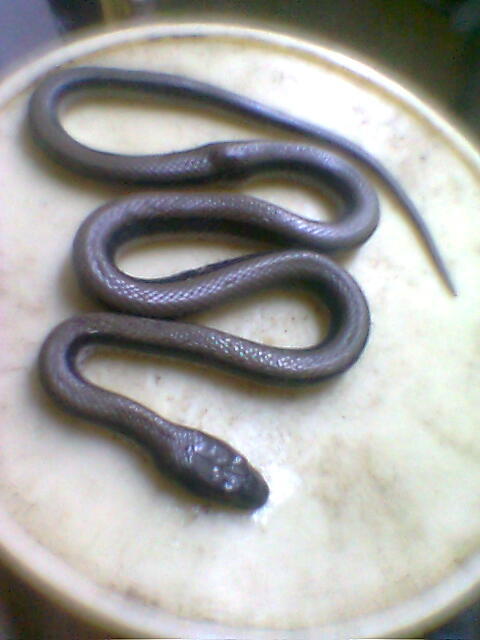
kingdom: Animalia
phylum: Chordata
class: Squamata
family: Colubridae
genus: Wallaceophis
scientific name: Wallaceophis gujaratensis
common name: Wallace’s racer
